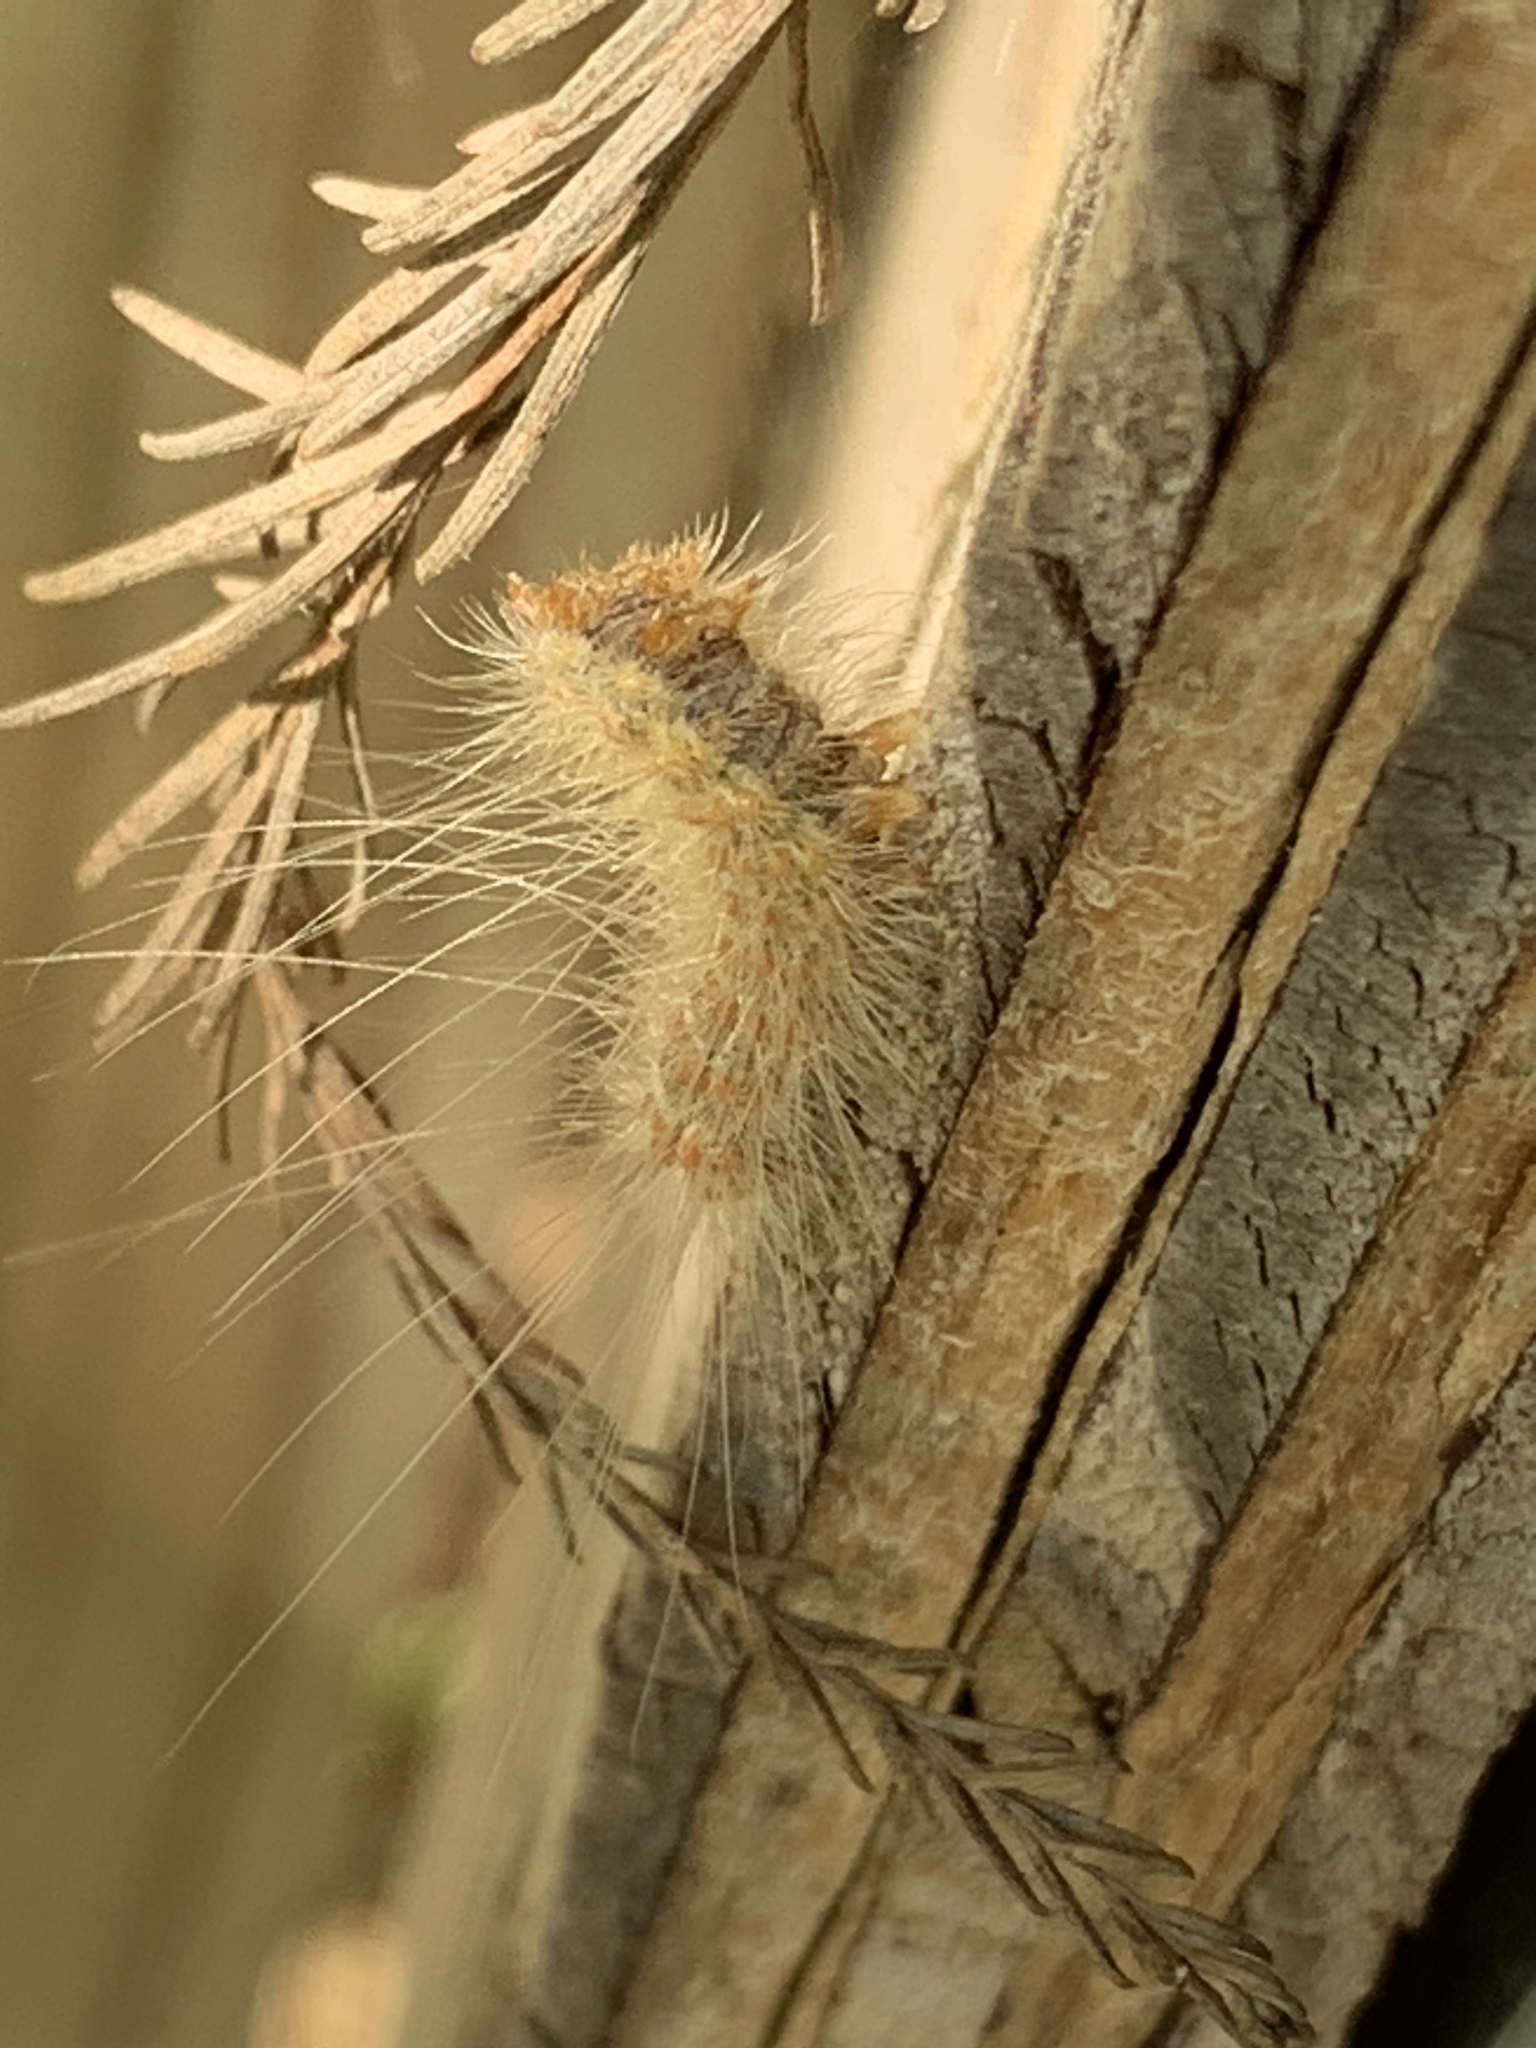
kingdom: Animalia
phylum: Arthropoda
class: Insecta
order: Lepidoptera
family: Erebidae
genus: Hyphantria
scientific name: Hyphantria cunea
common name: American white moth
